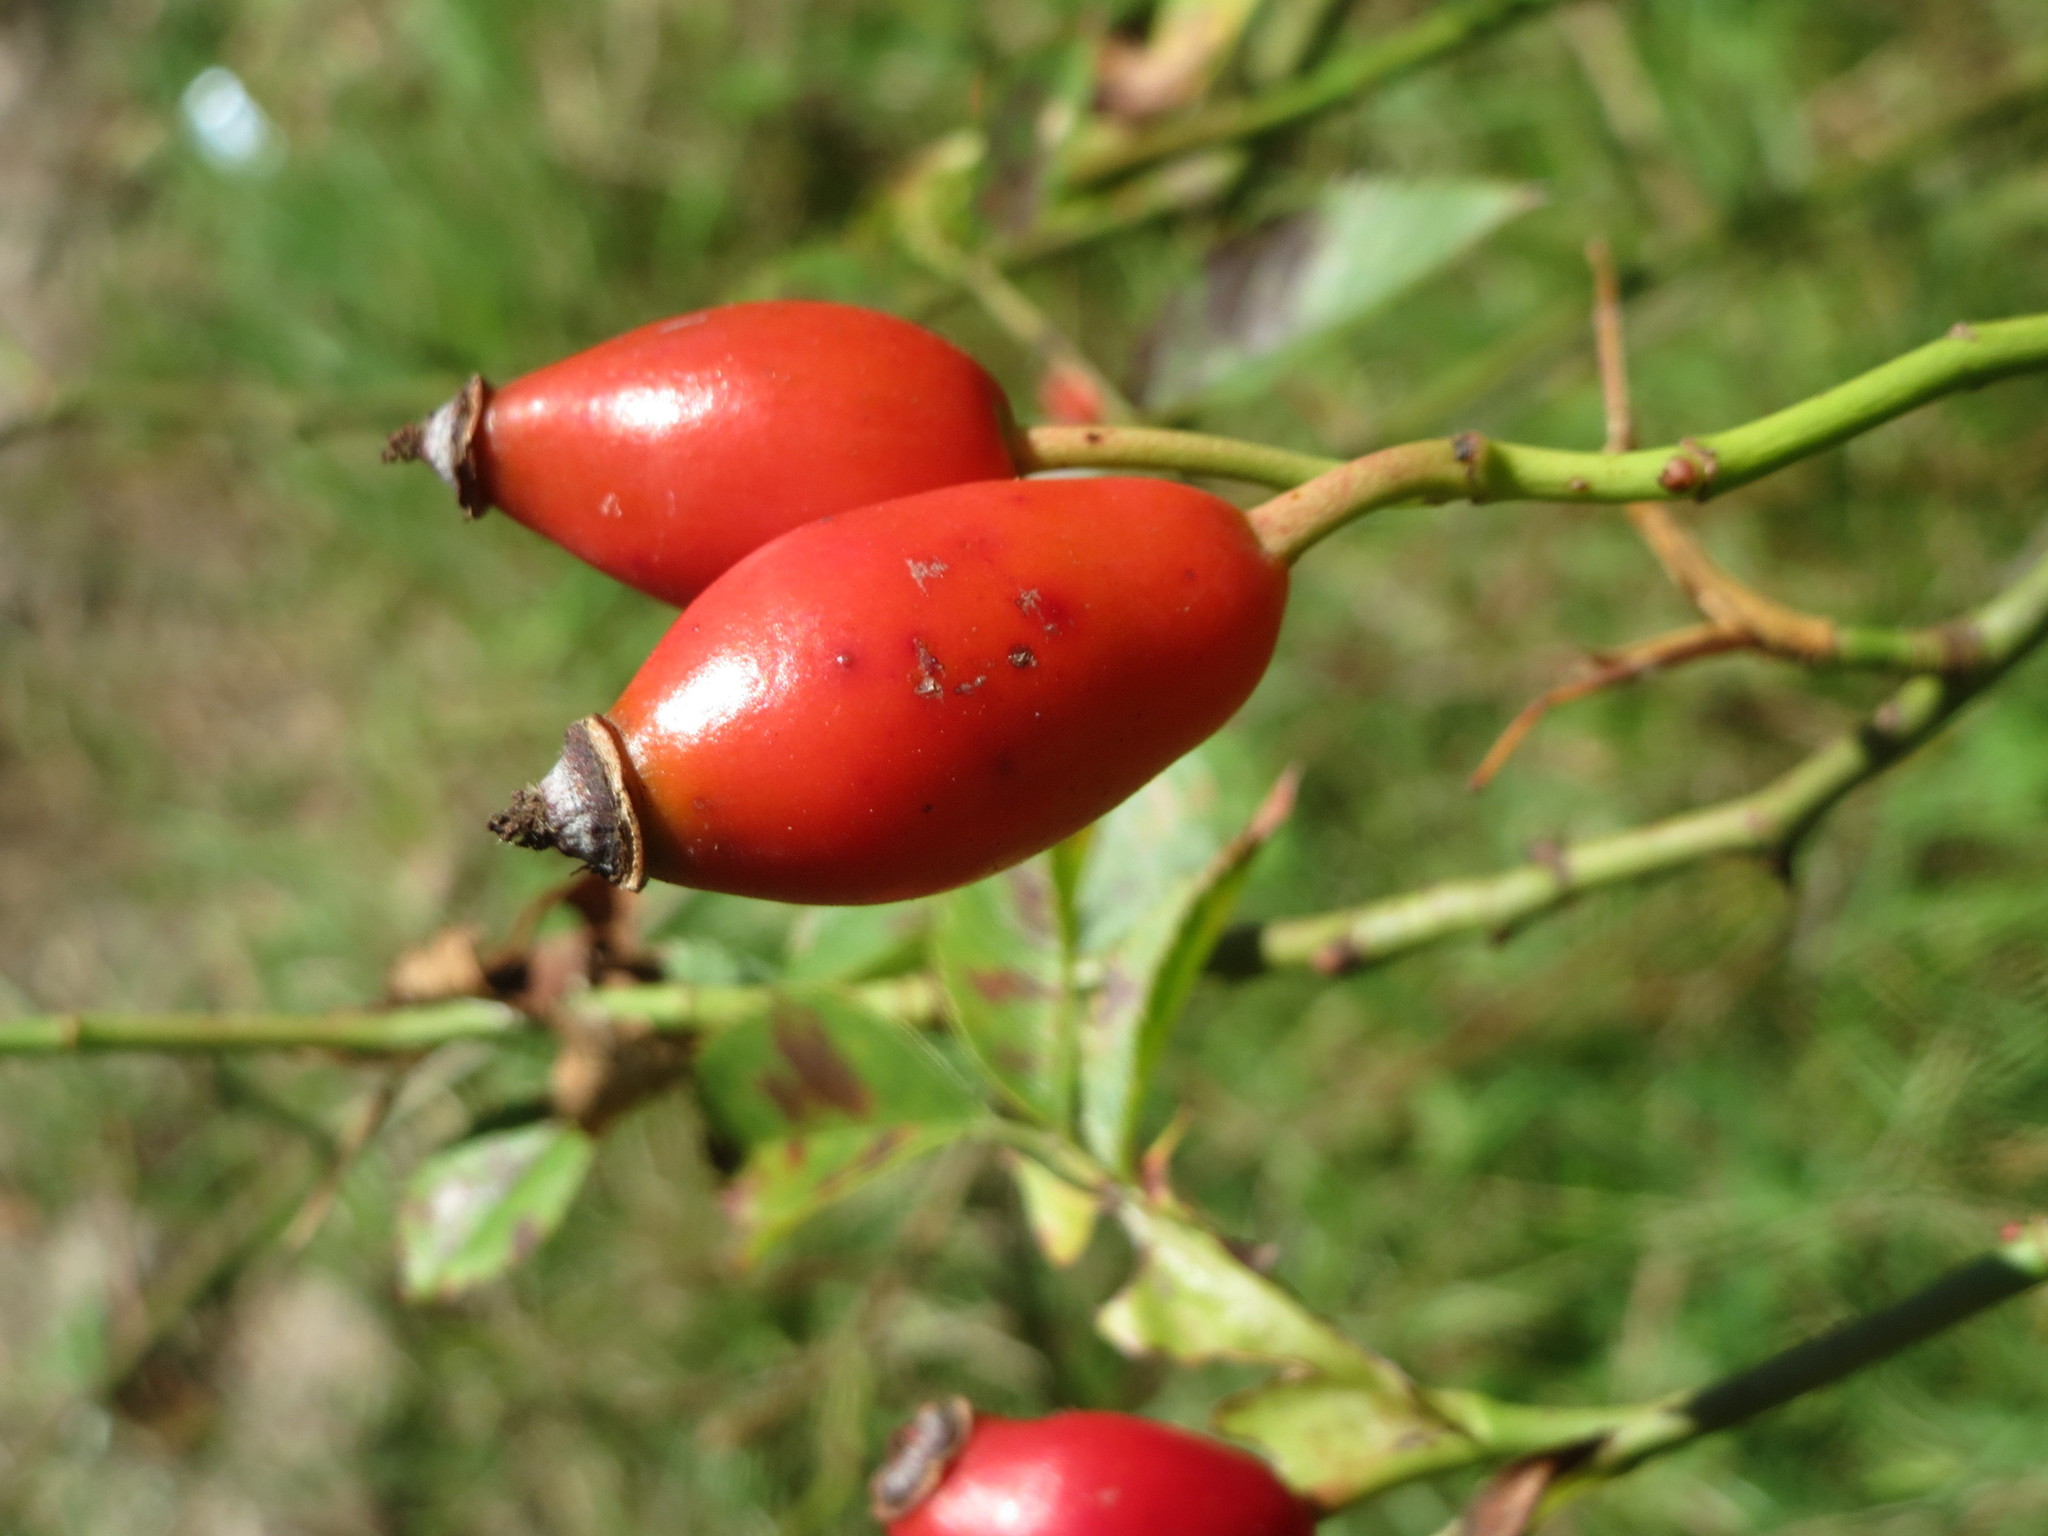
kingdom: Plantae
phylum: Tracheophyta
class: Magnoliopsida
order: Rosales
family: Rosaceae
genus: Rosa
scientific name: Rosa canina
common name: Dog rose
